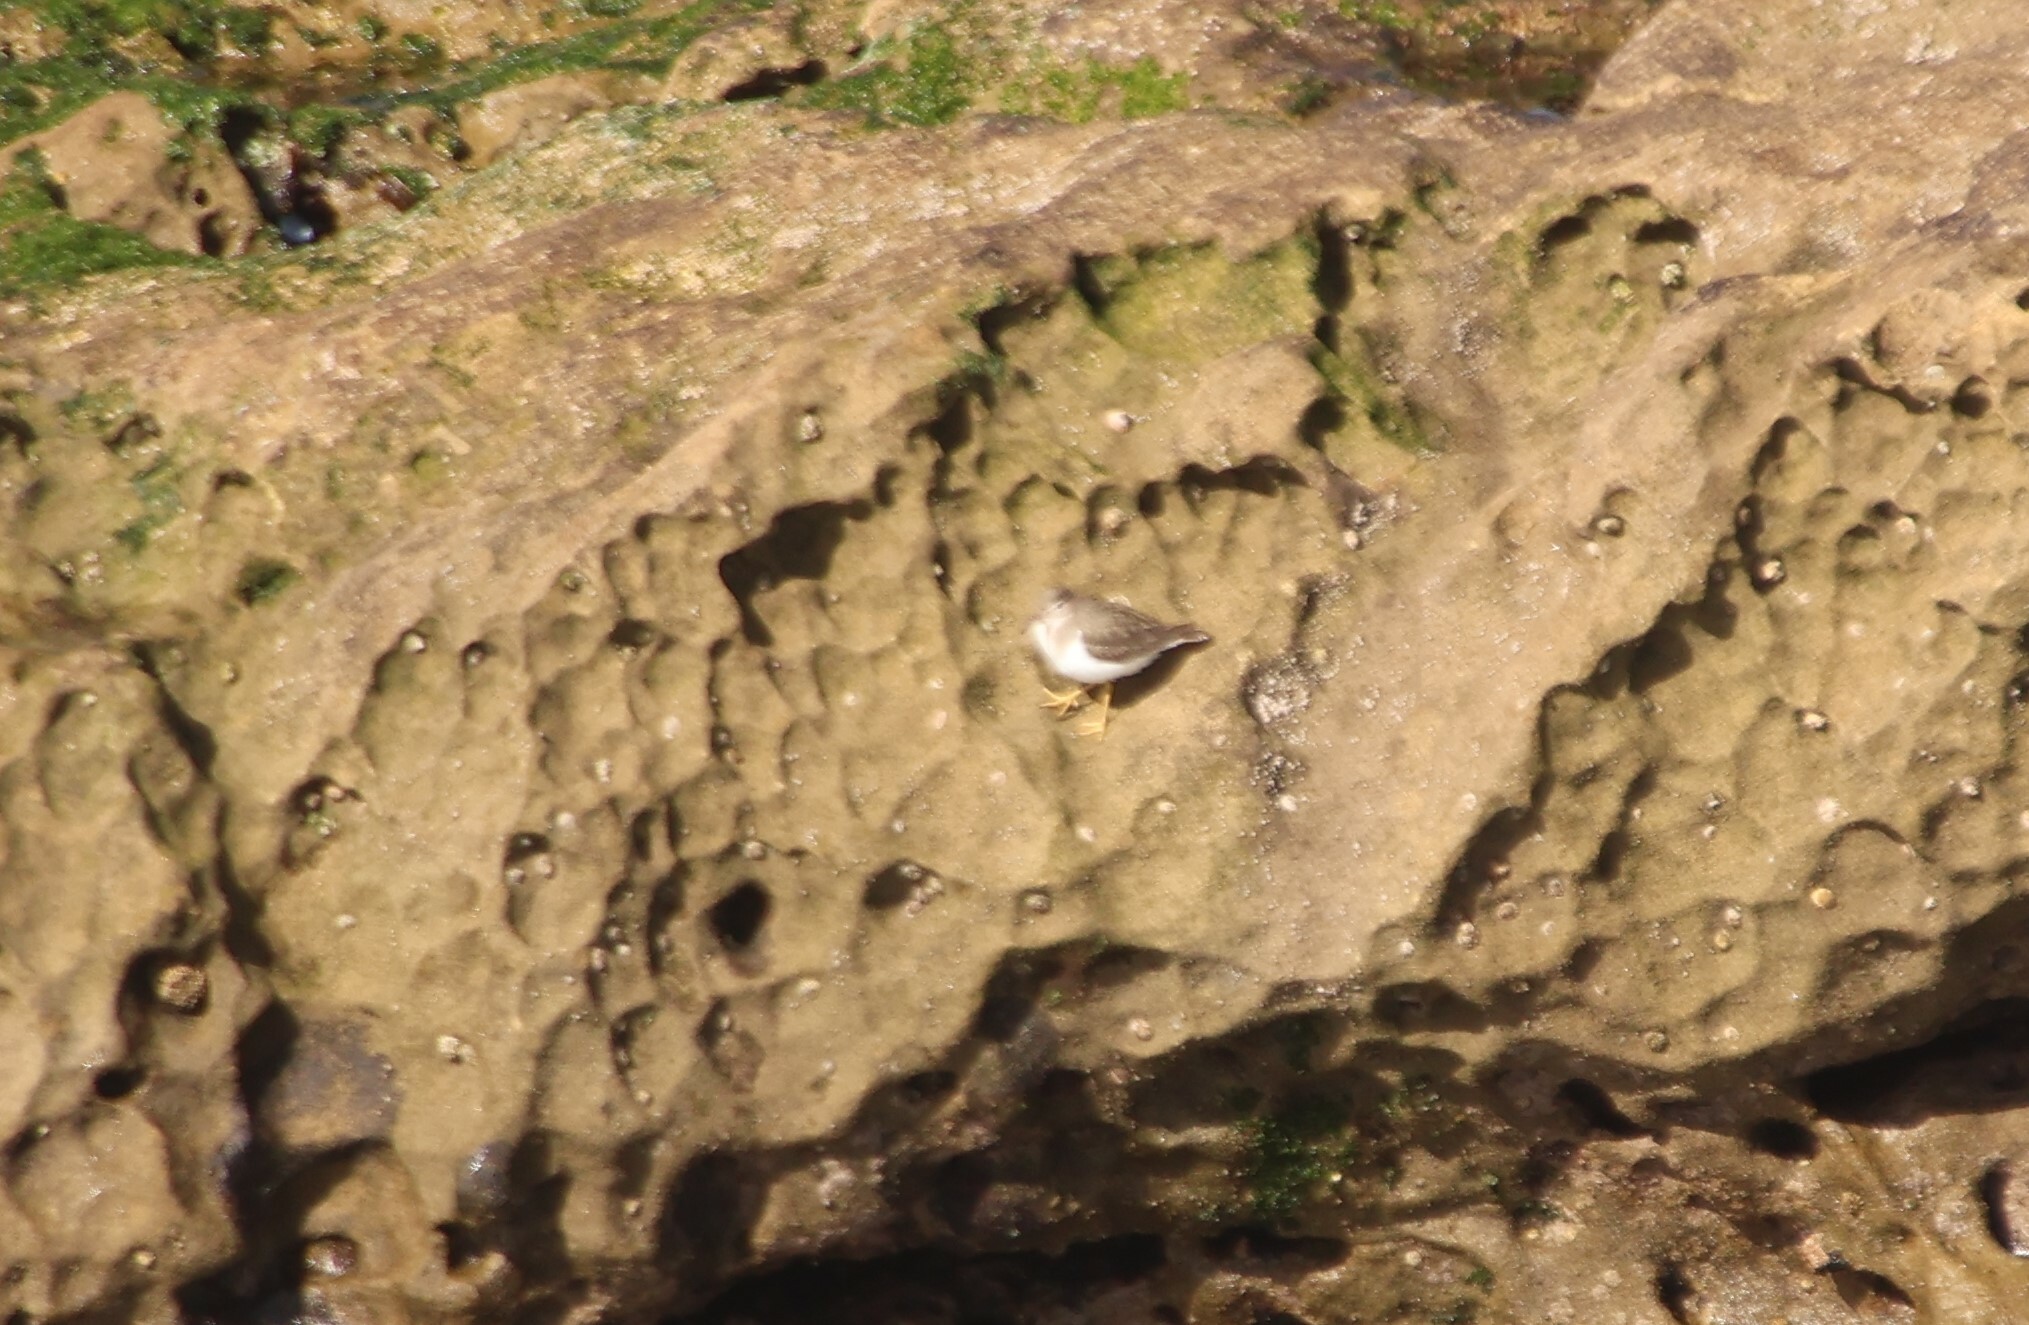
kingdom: Animalia
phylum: Chordata
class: Aves
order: Charadriiformes
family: Scolopacidae
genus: Actitis
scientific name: Actitis macularius
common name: Spotted sandpiper
